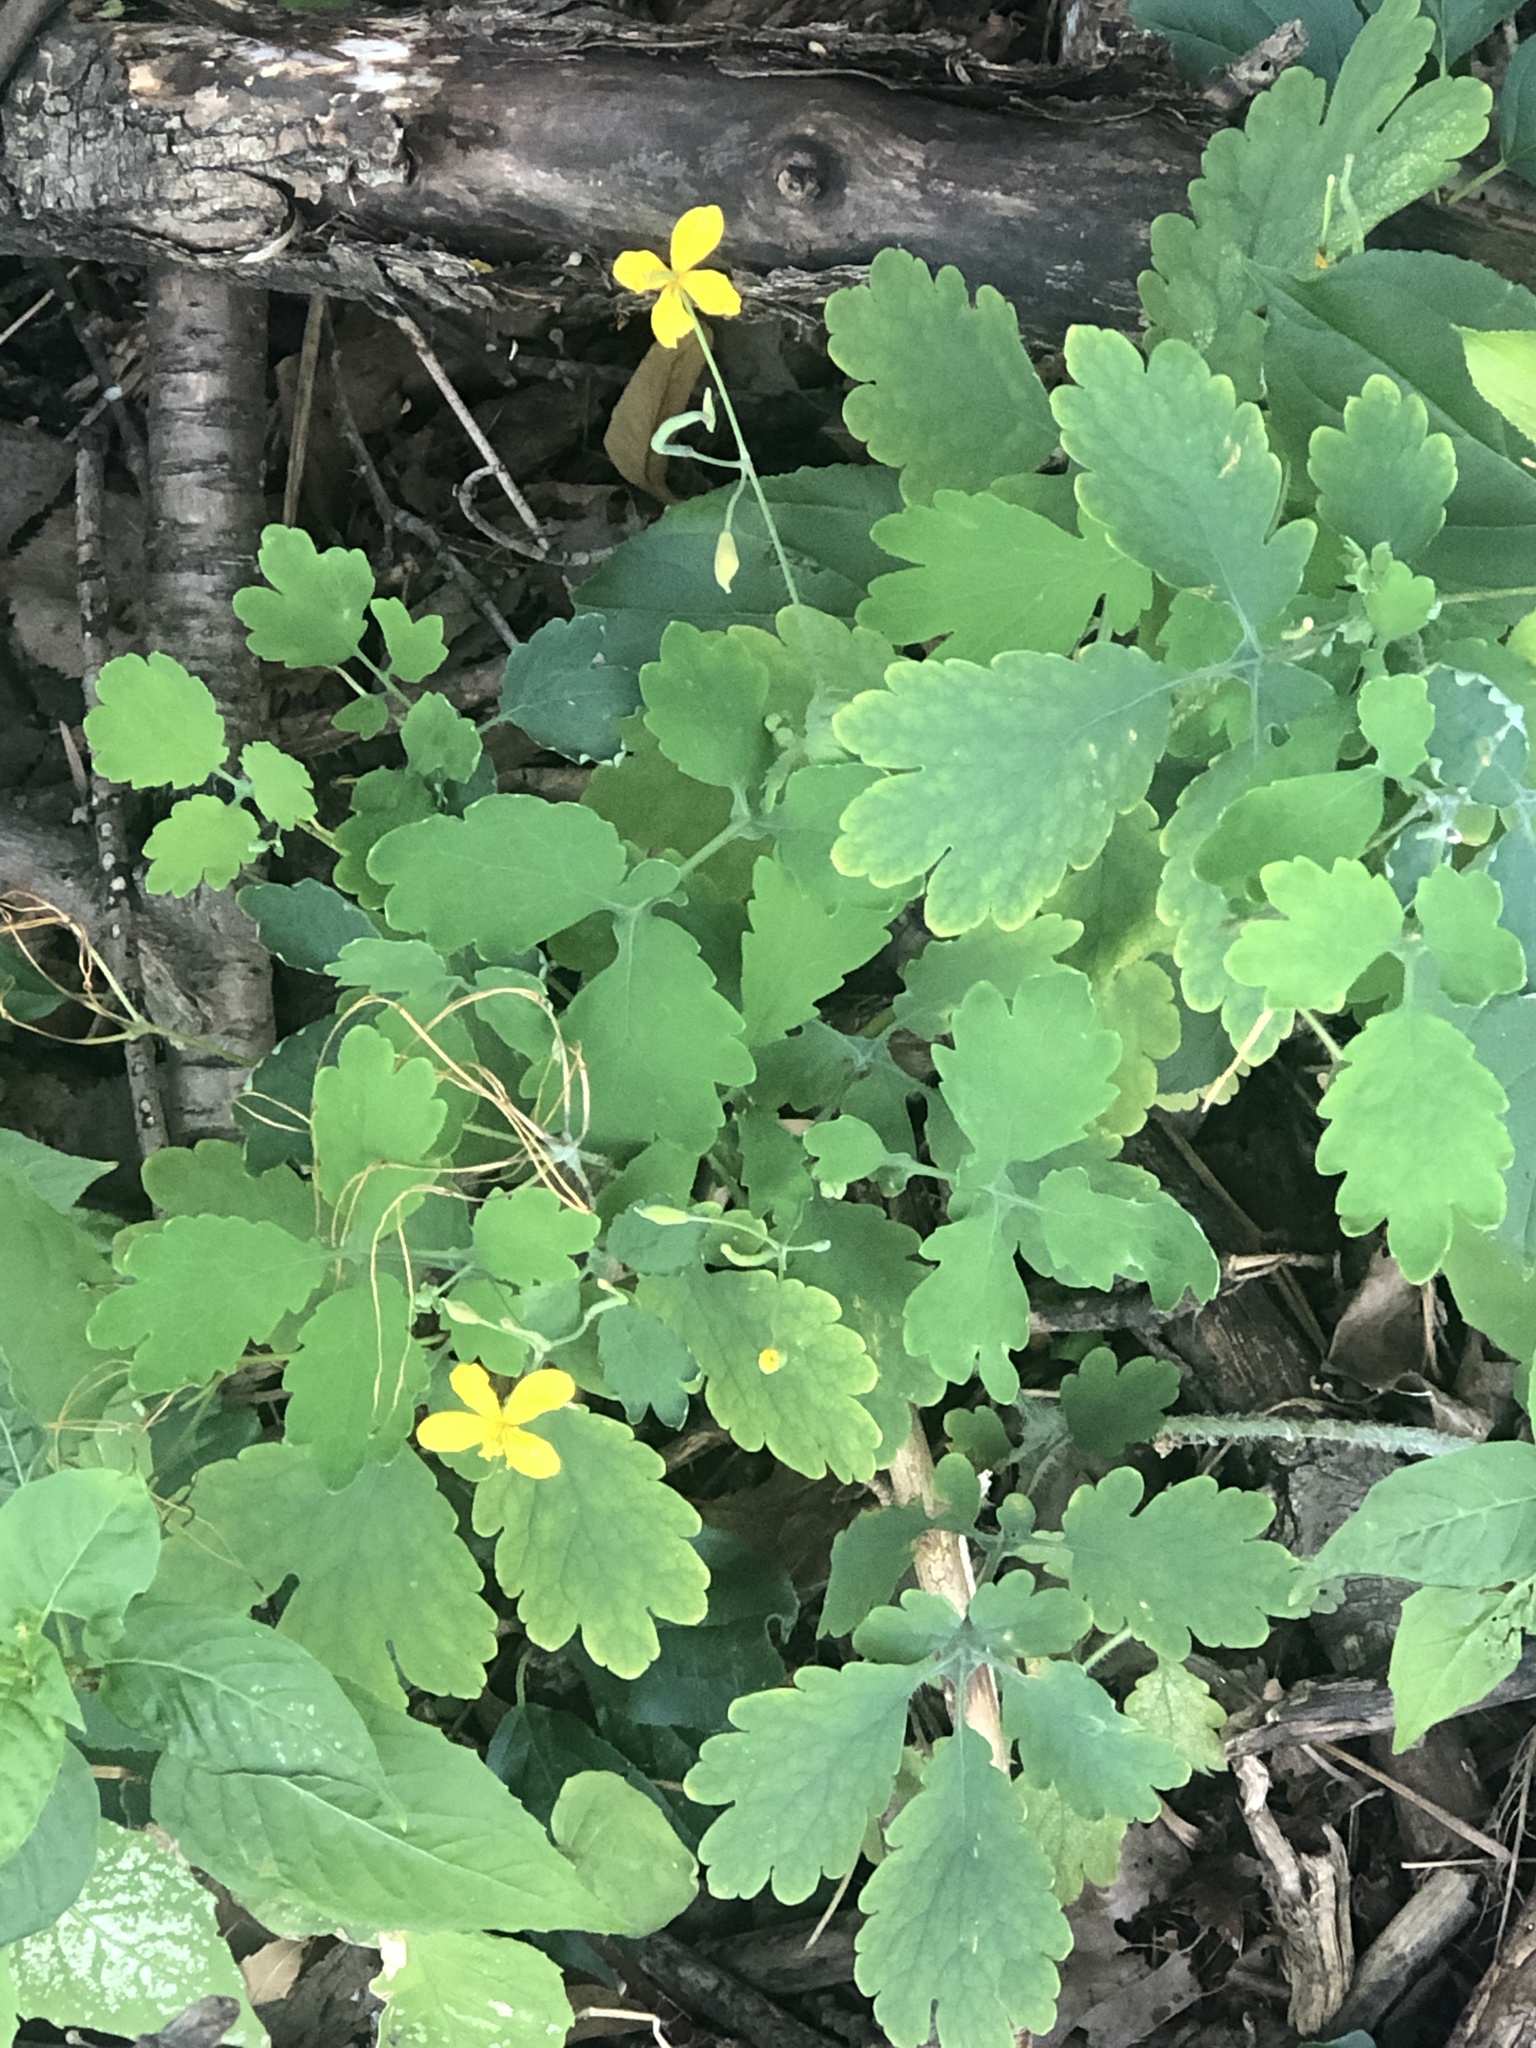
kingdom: Plantae
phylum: Tracheophyta
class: Magnoliopsida
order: Ranunculales
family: Papaveraceae
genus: Chelidonium
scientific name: Chelidonium majus
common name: Greater celandine
